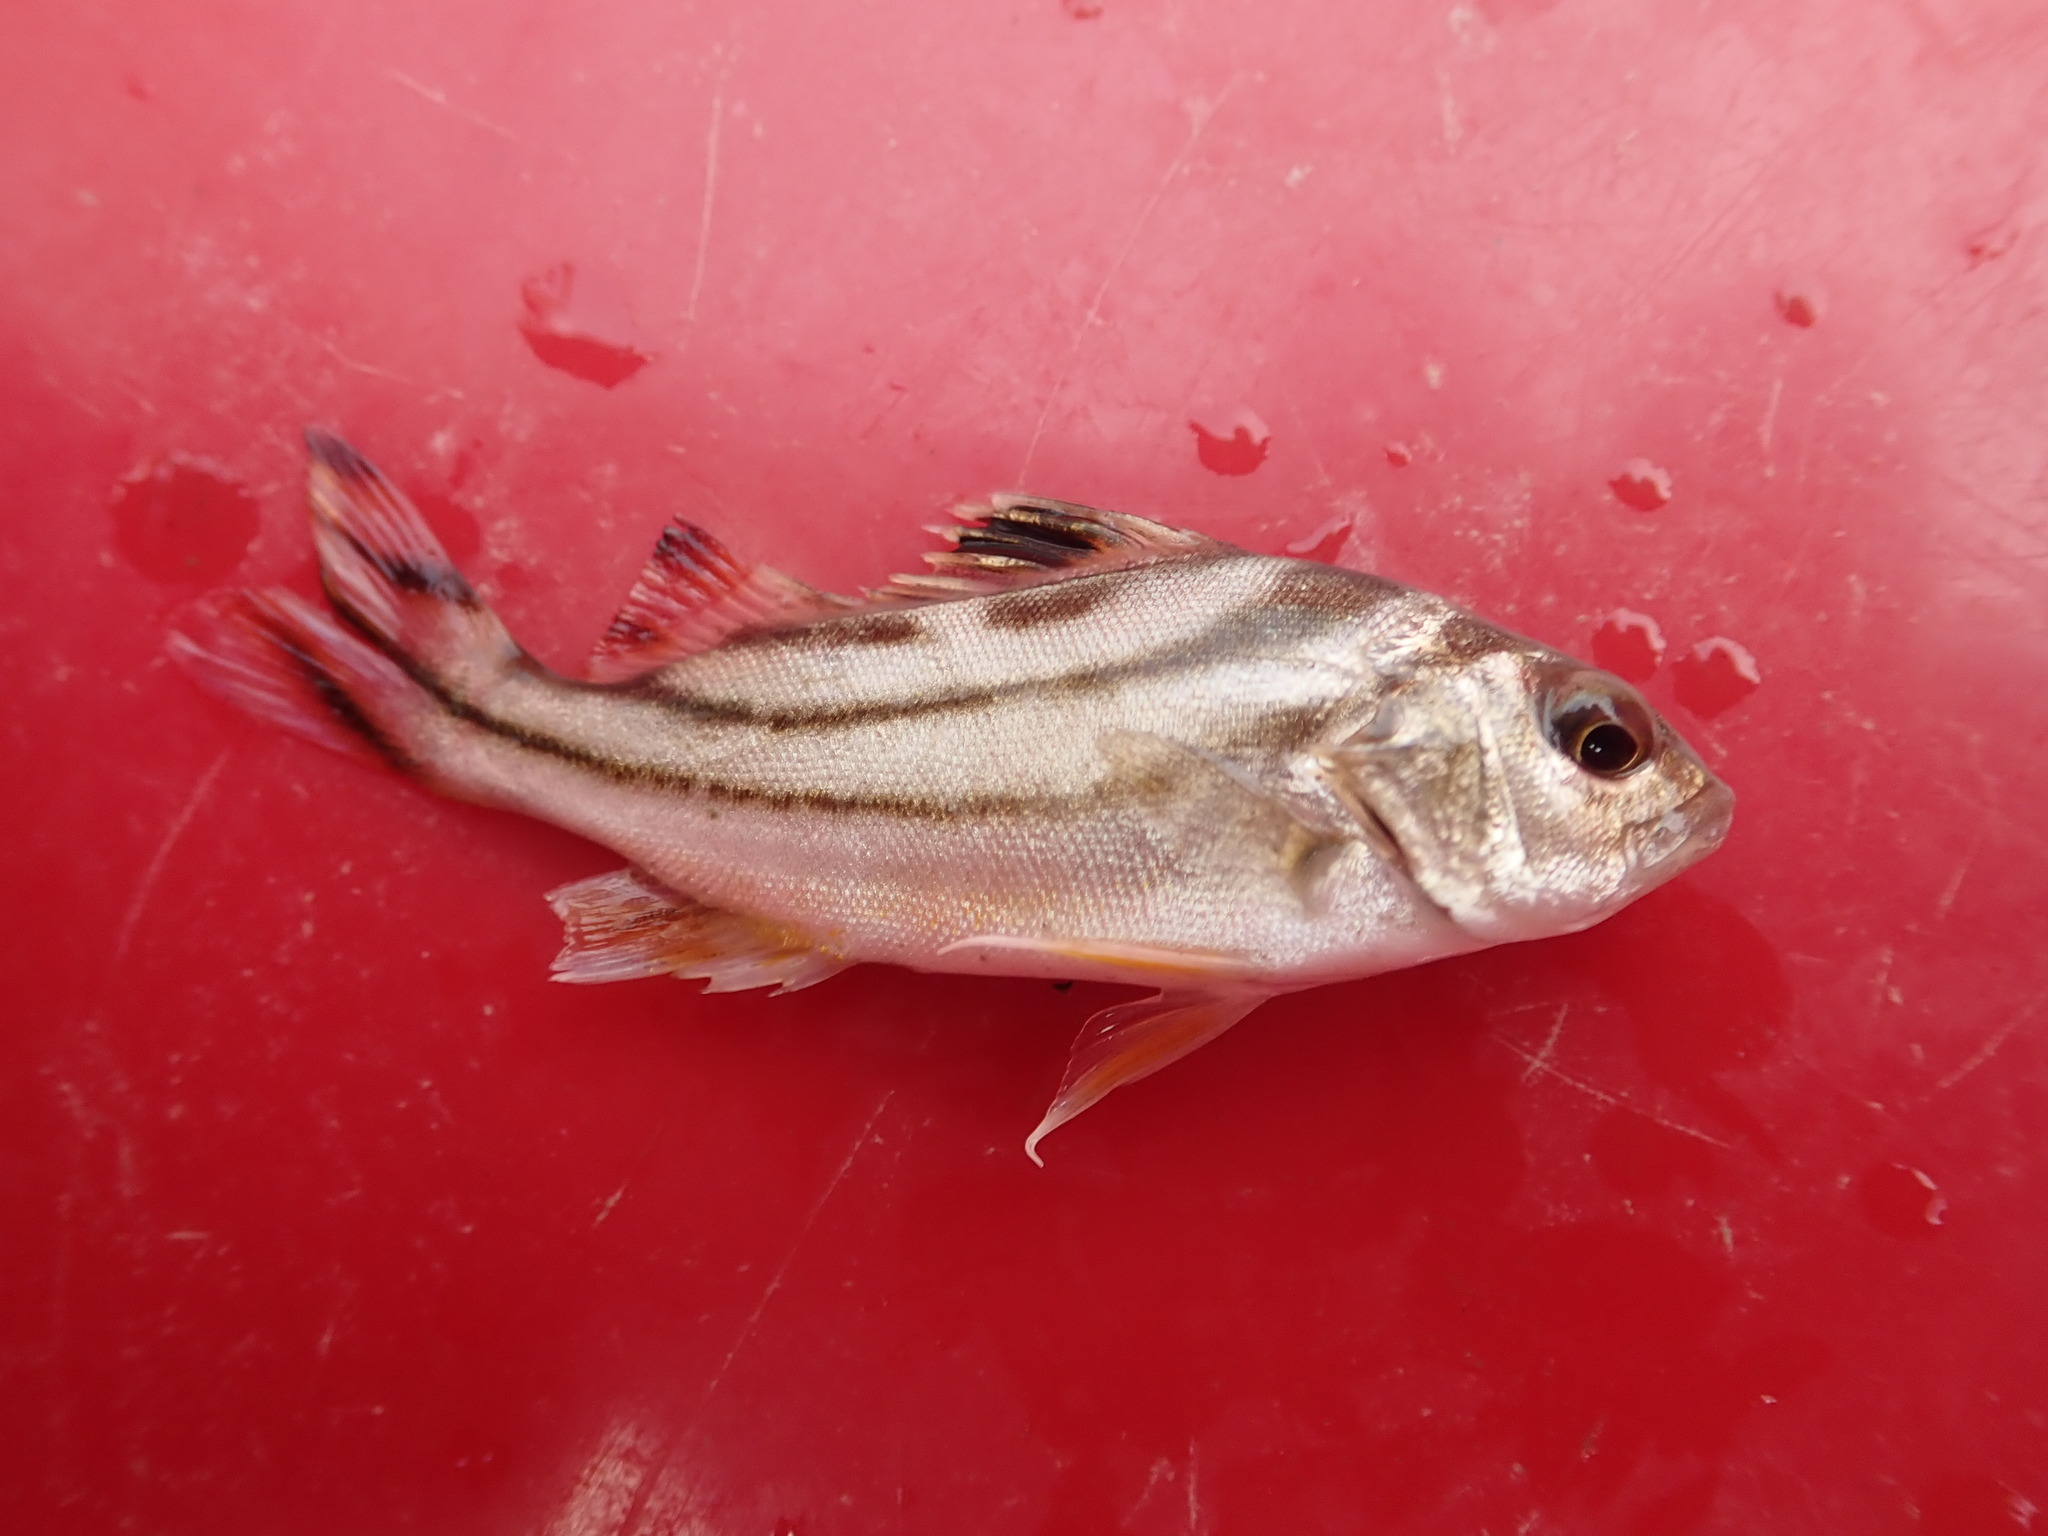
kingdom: Animalia
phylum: Chordata
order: Perciformes
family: Terapontidae
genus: Terapon
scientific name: Terapon jarbua
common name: Jarbua terapon
